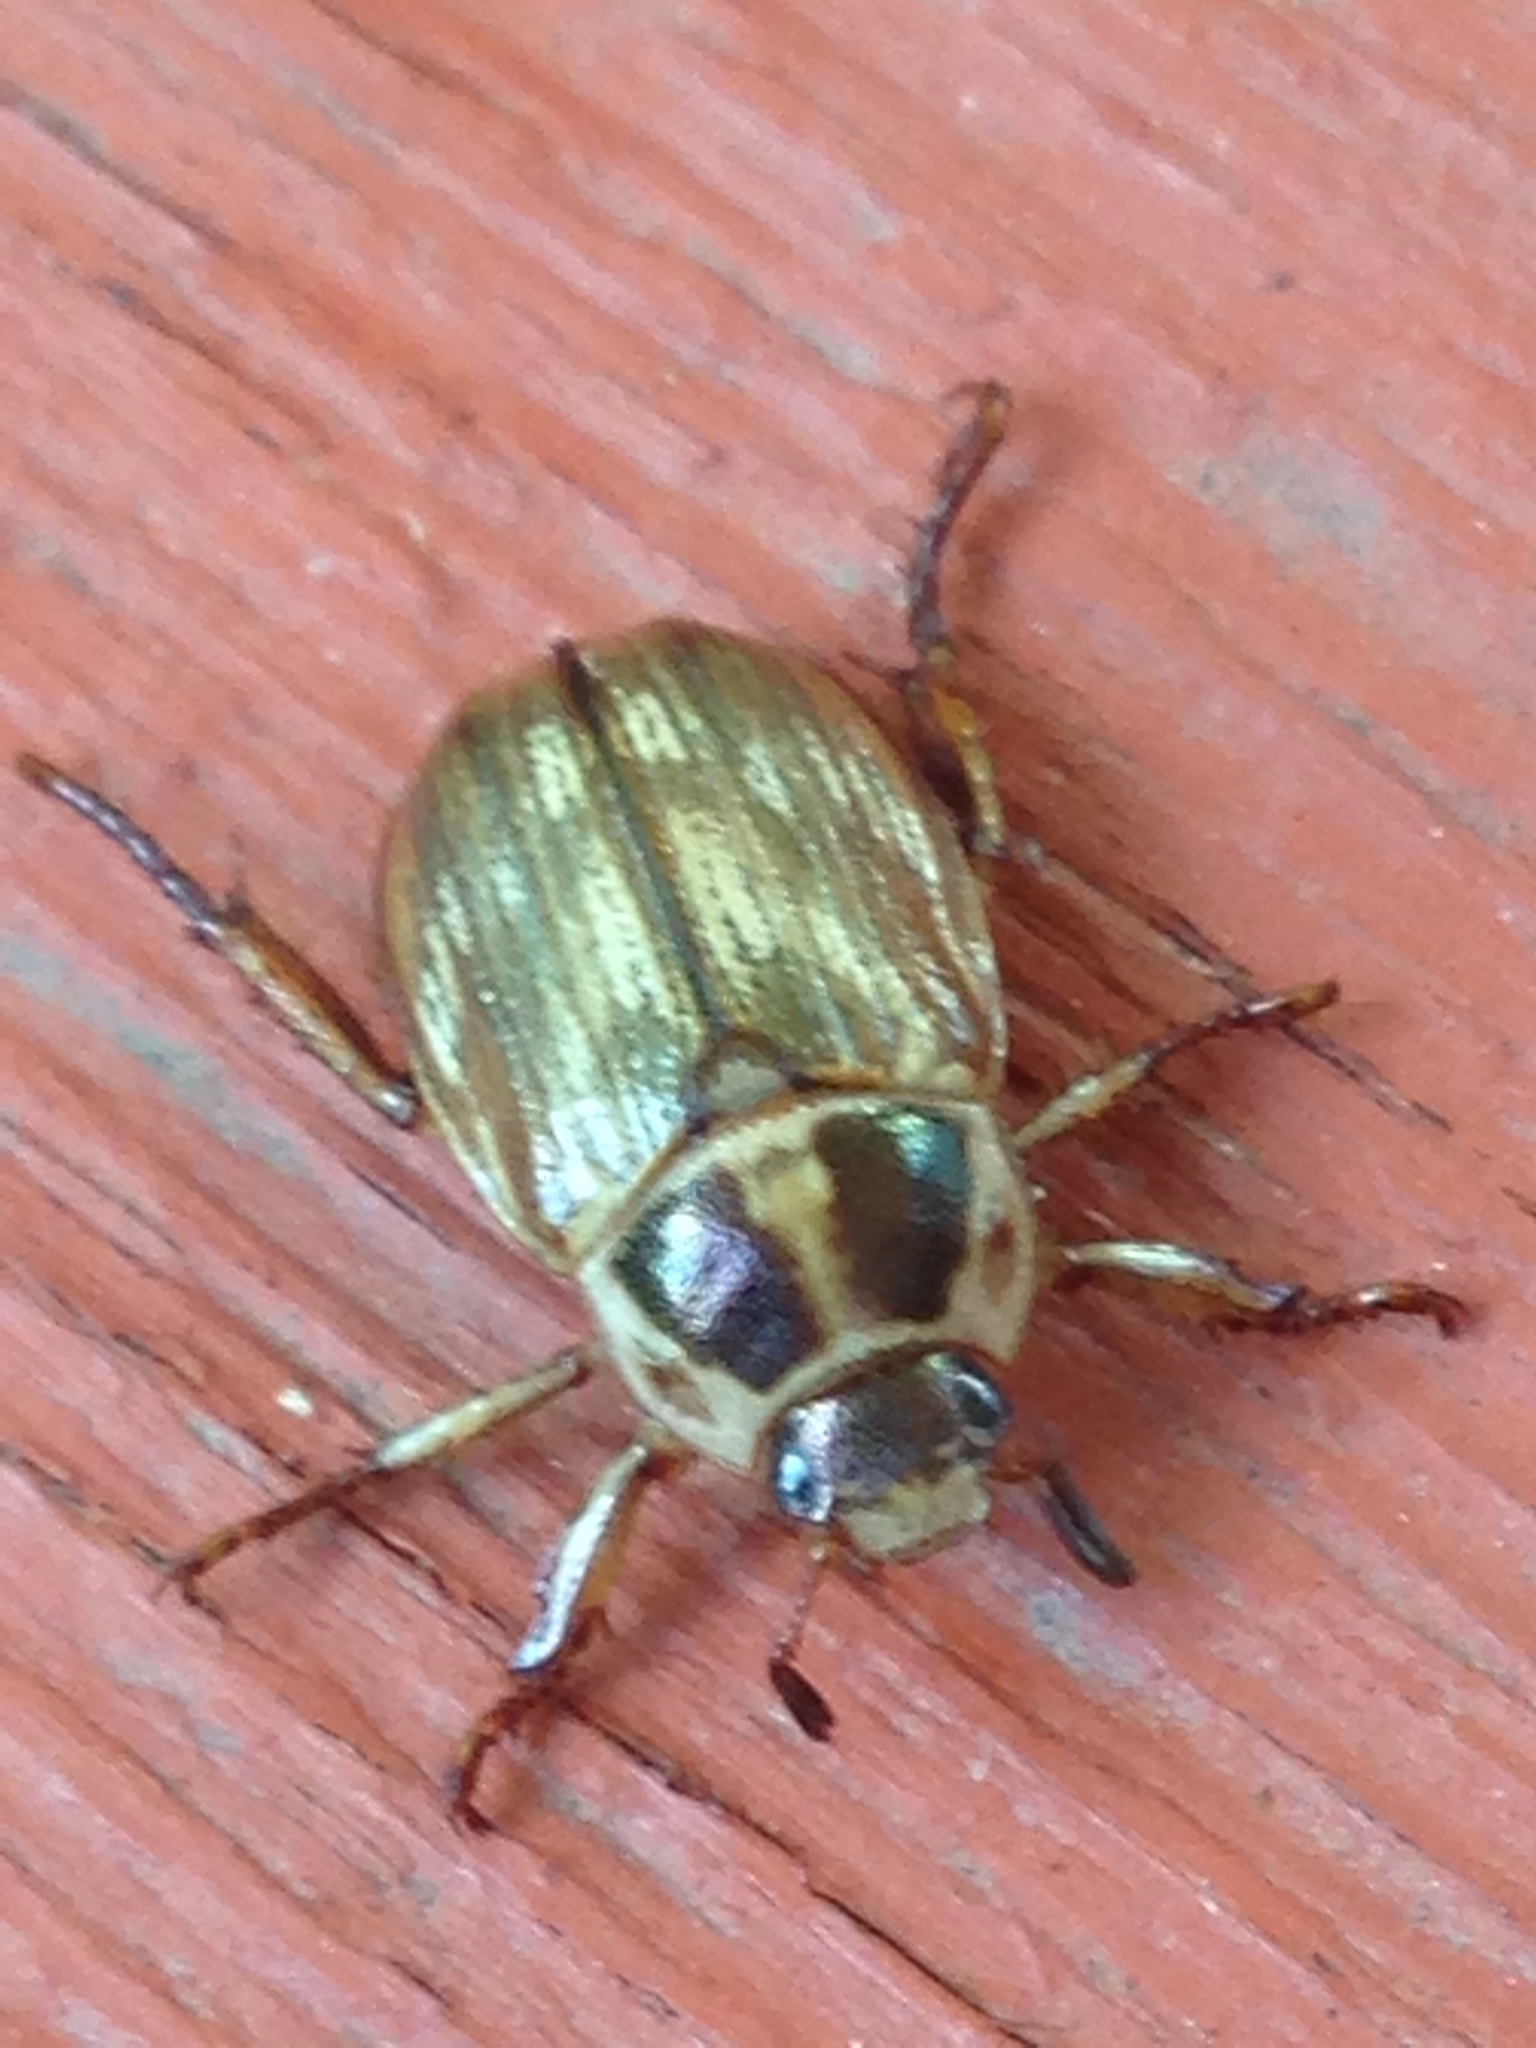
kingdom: Animalia
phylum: Arthropoda
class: Insecta
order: Coleoptera
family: Scarabaeidae
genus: Exomala
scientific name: Exomala orientalis
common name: Oriental beetle
